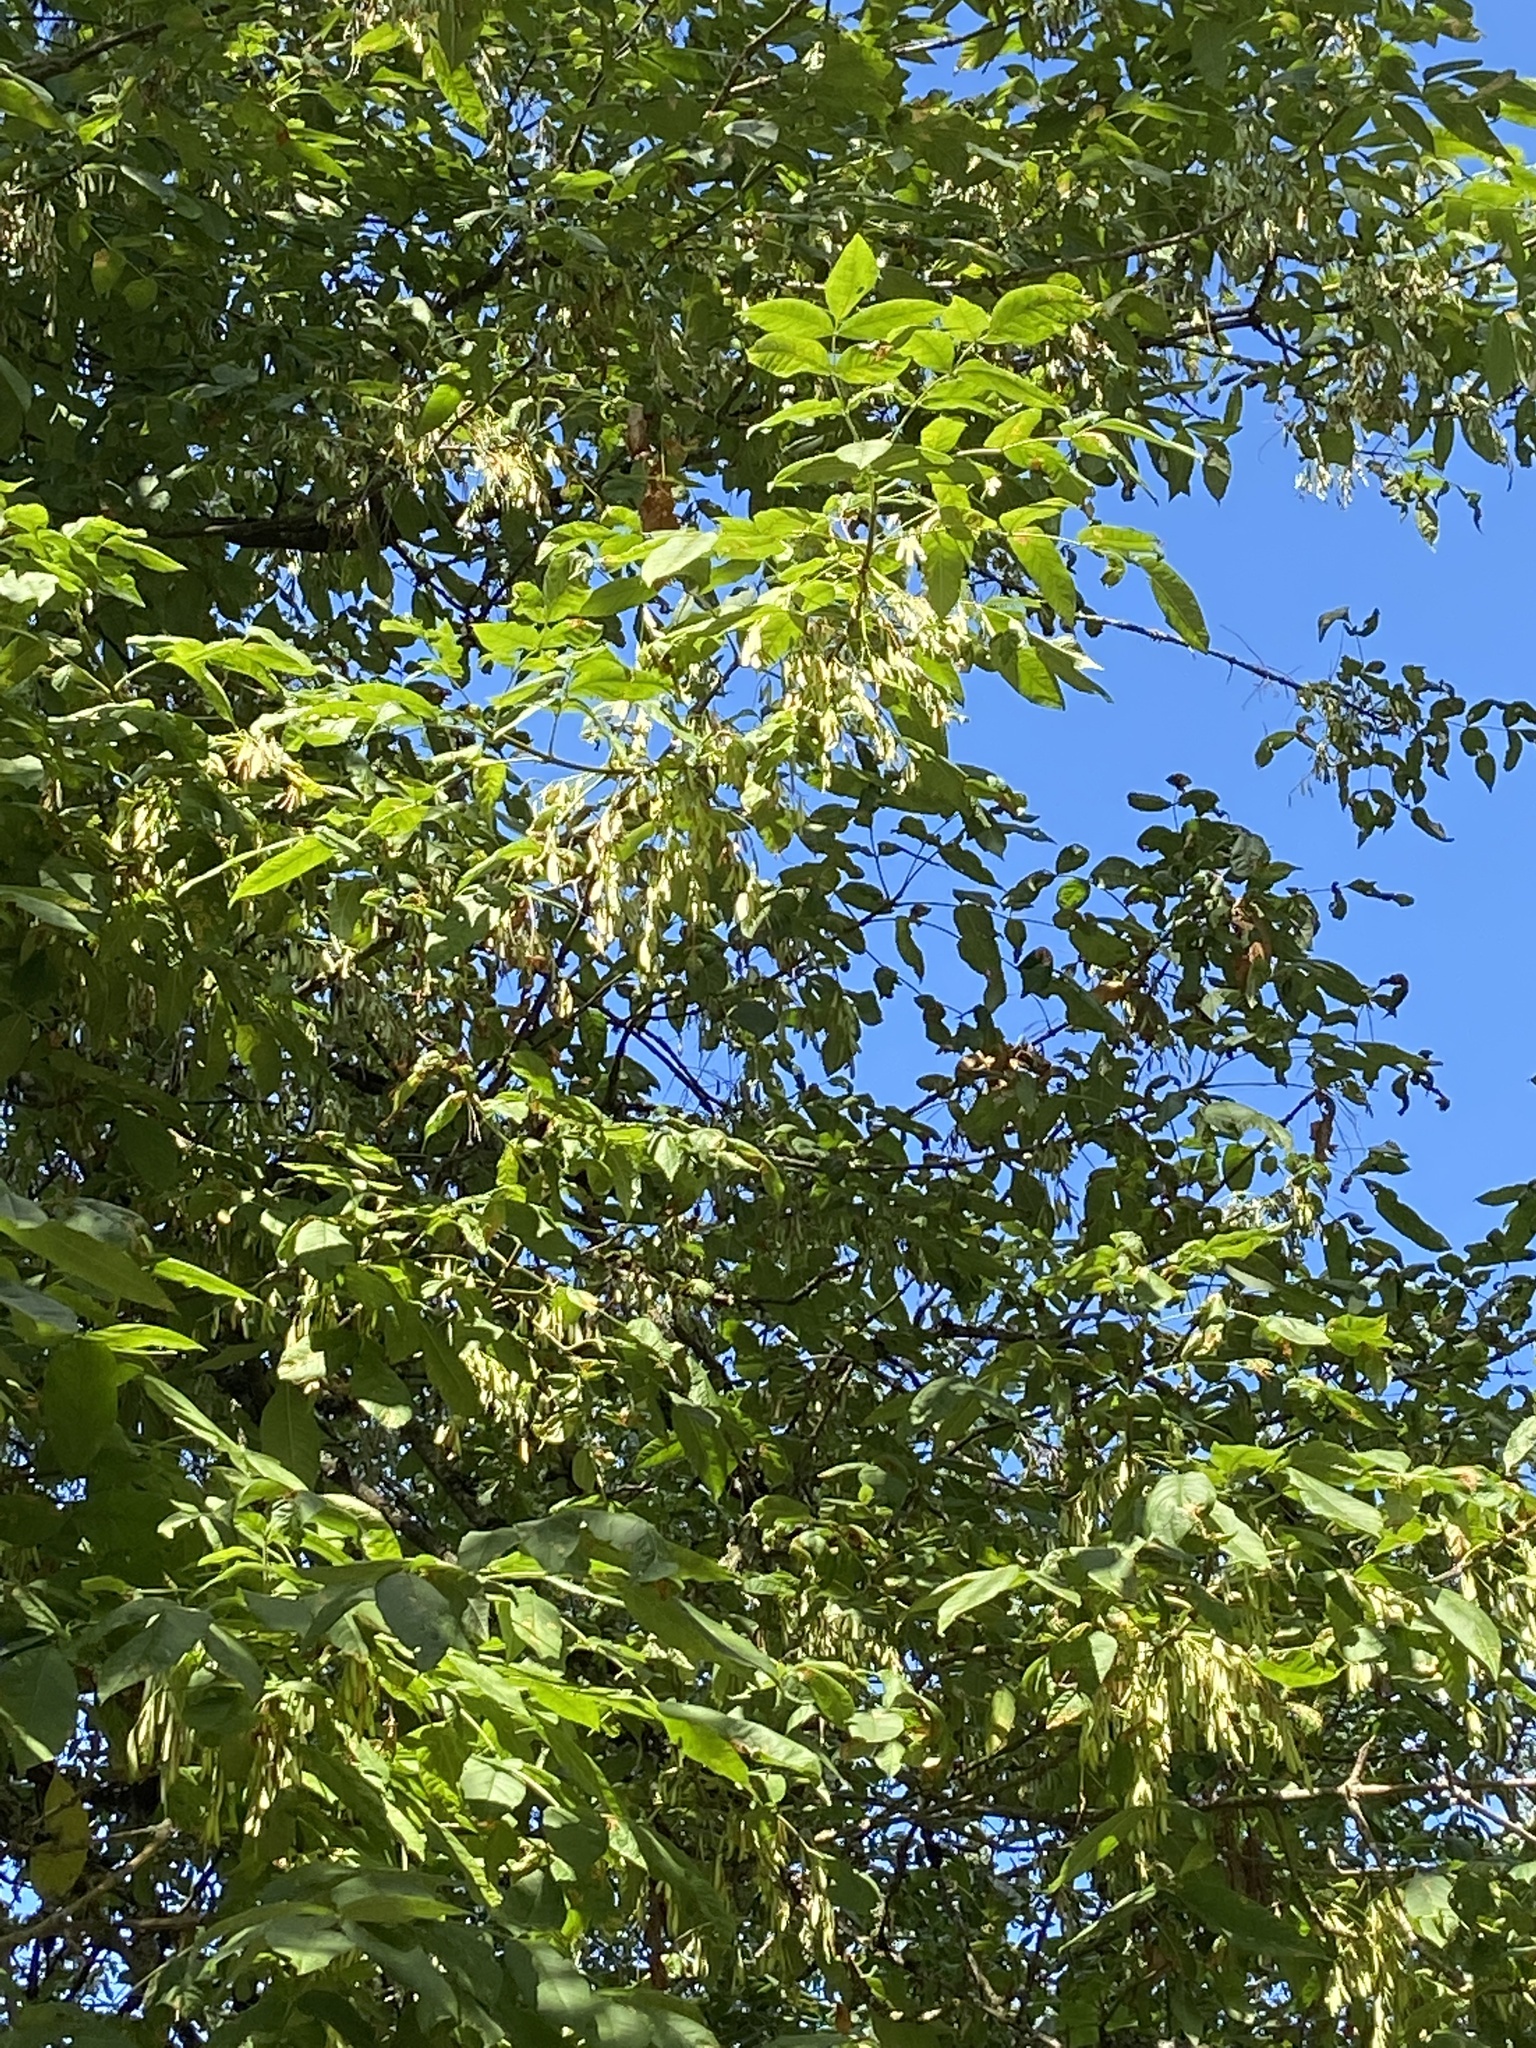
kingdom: Plantae
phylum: Tracheophyta
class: Magnoliopsida
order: Lamiales
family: Oleaceae
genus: Fraxinus
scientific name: Fraxinus latifolia
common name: Oregon ash
